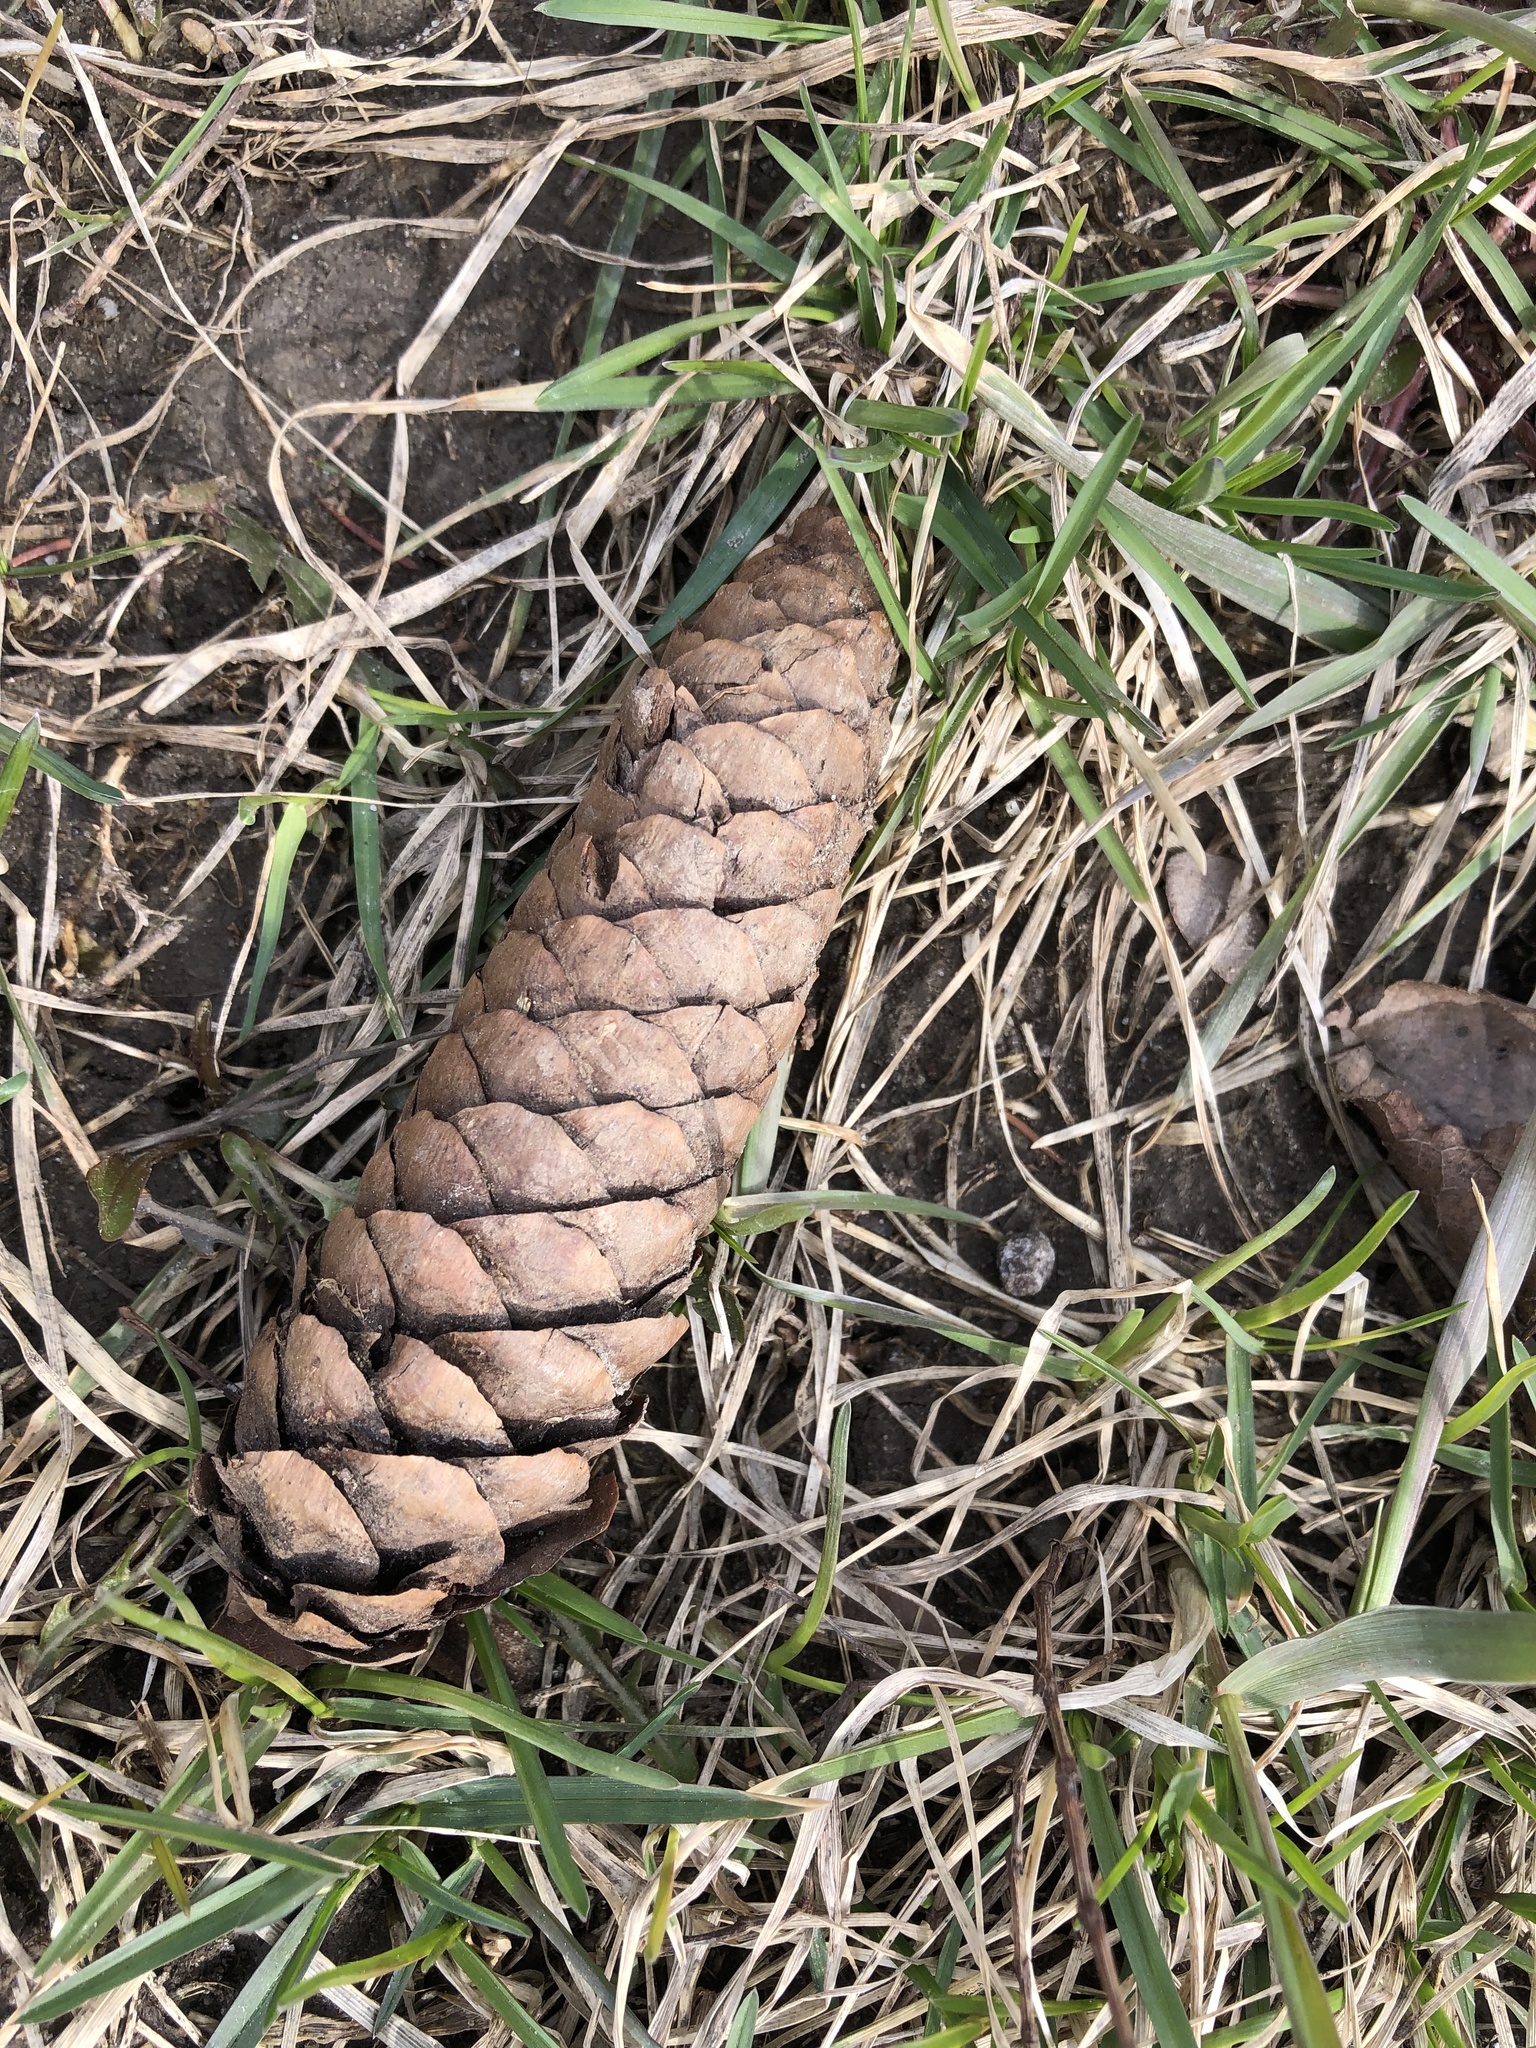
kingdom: Plantae
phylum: Tracheophyta
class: Pinopsida
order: Pinales
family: Pinaceae
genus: Picea
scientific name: Picea abies
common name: Norway spruce
